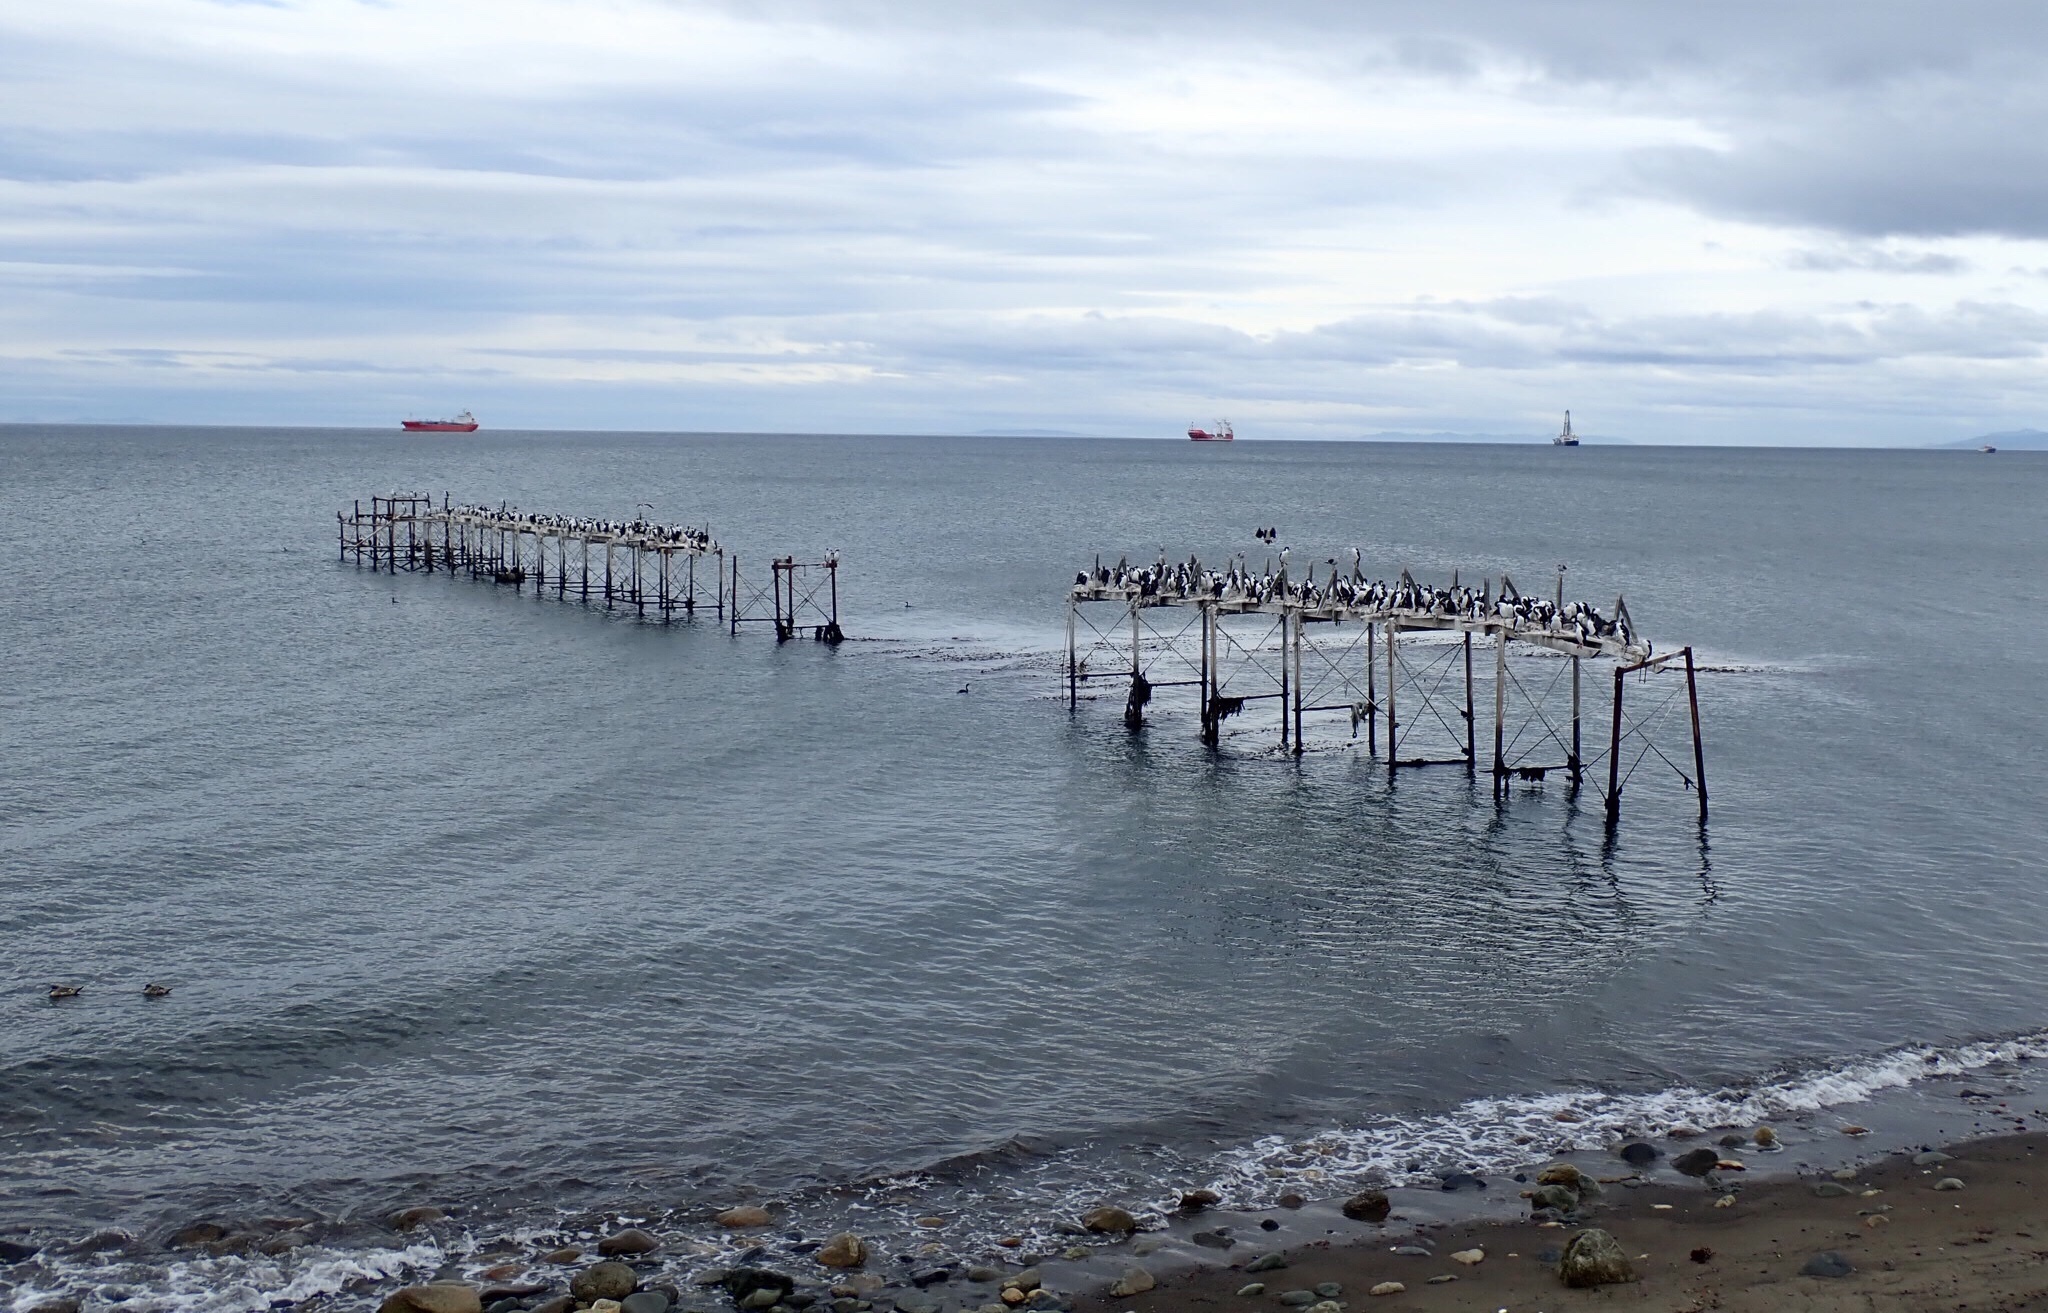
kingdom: Animalia
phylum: Chordata
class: Aves
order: Suliformes
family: Phalacrocoracidae
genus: Leucocarbo
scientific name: Leucocarbo atriceps
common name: Imperial shag
